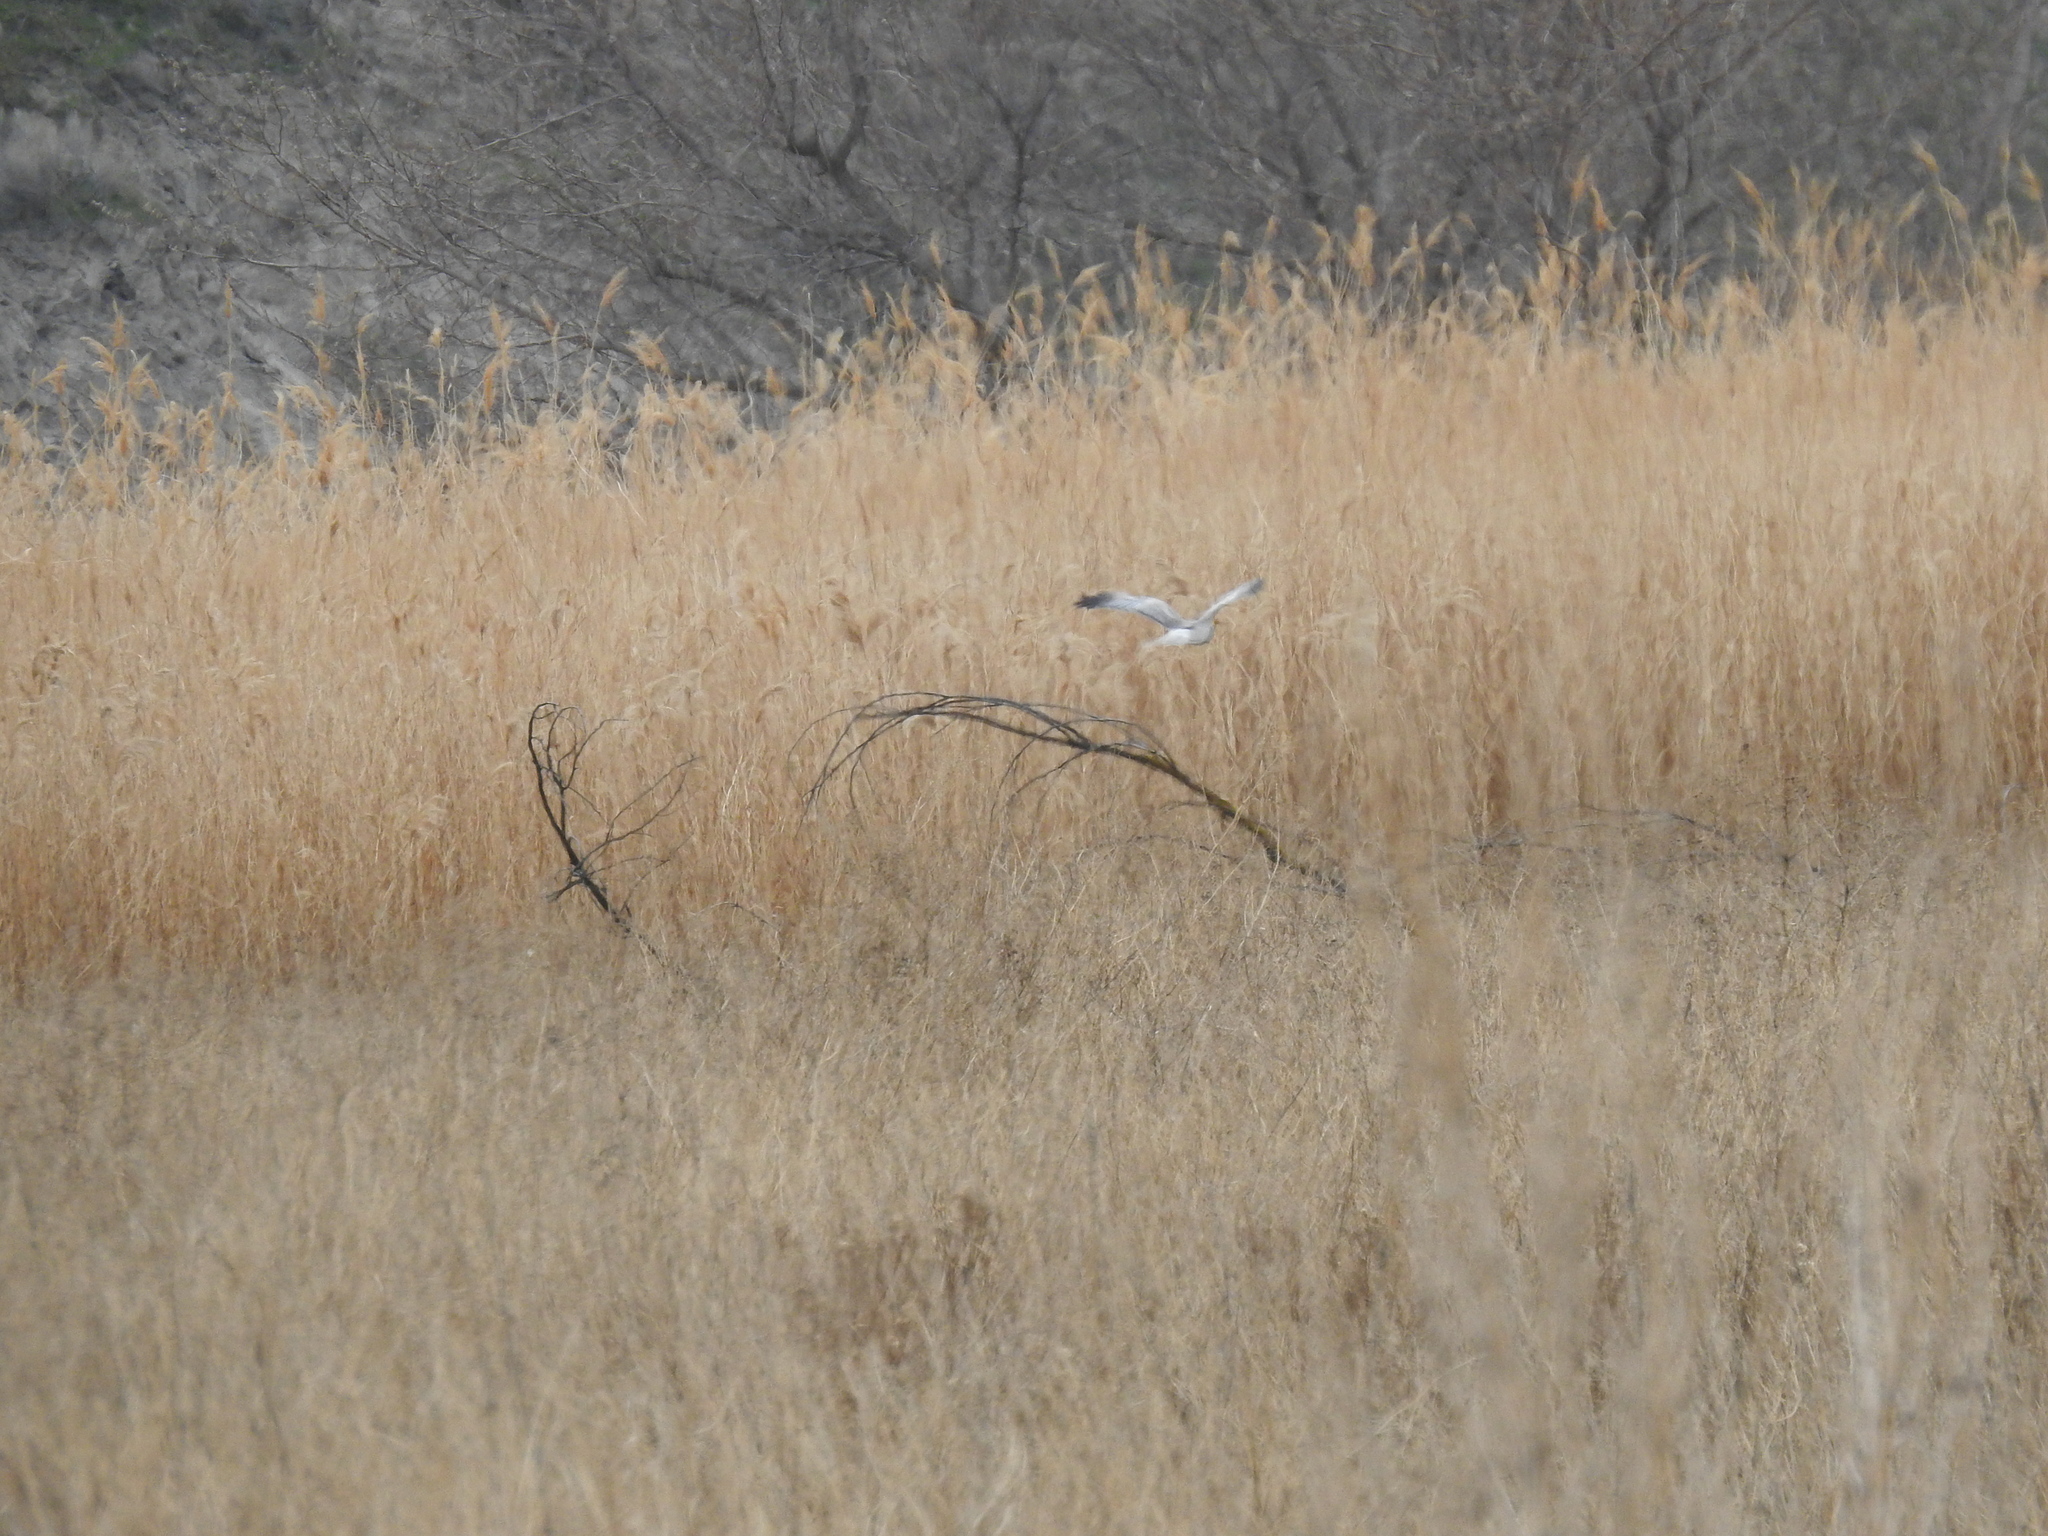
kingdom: Animalia
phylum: Chordata
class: Aves
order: Accipitriformes
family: Accipitridae
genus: Circus
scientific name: Circus cyaneus
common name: Hen harrier
